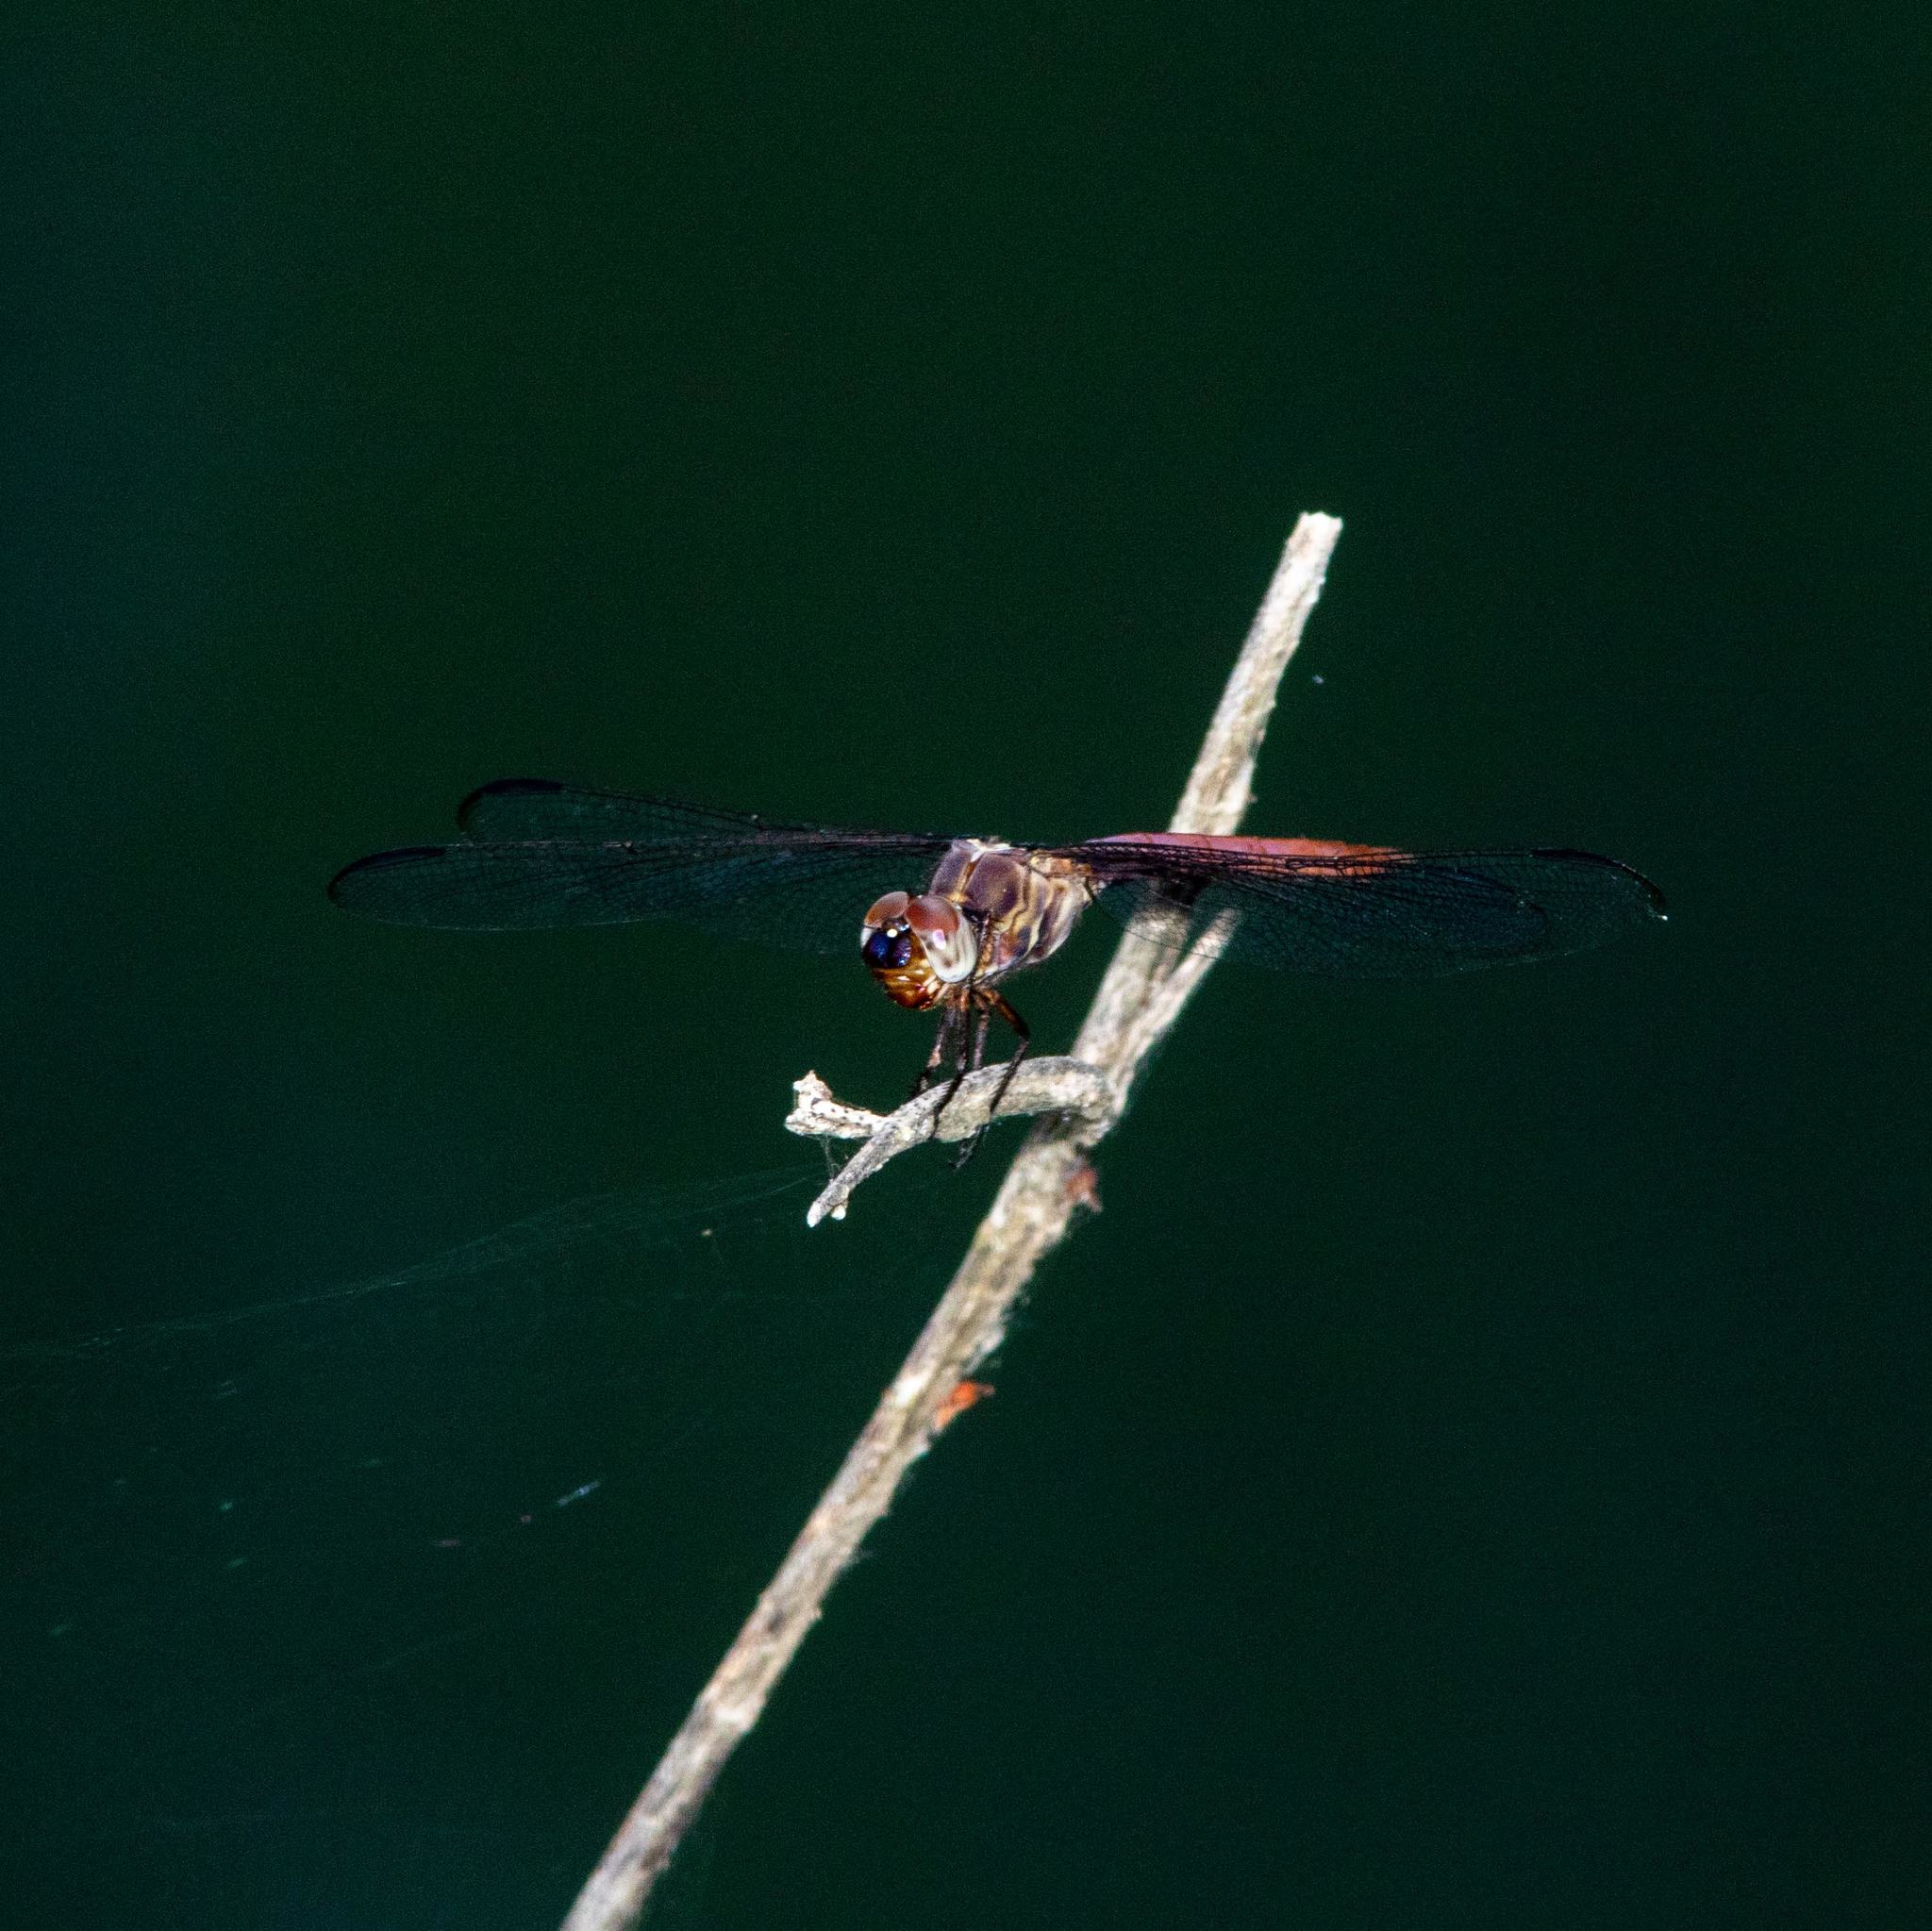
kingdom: Animalia
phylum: Arthropoda
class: Insecta
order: Odonata
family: Libellulidae
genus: Orthemis
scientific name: Orthemis ferruginea
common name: Roseate skimmer
